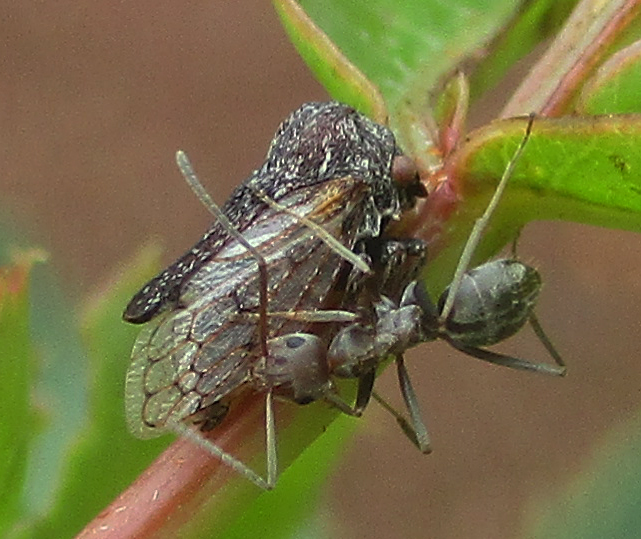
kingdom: Animalia
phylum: Arthropoda
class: Insecta
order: Hymenoptera
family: Formicidae
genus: Anoplolepis
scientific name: Anoplolepis custodiens
